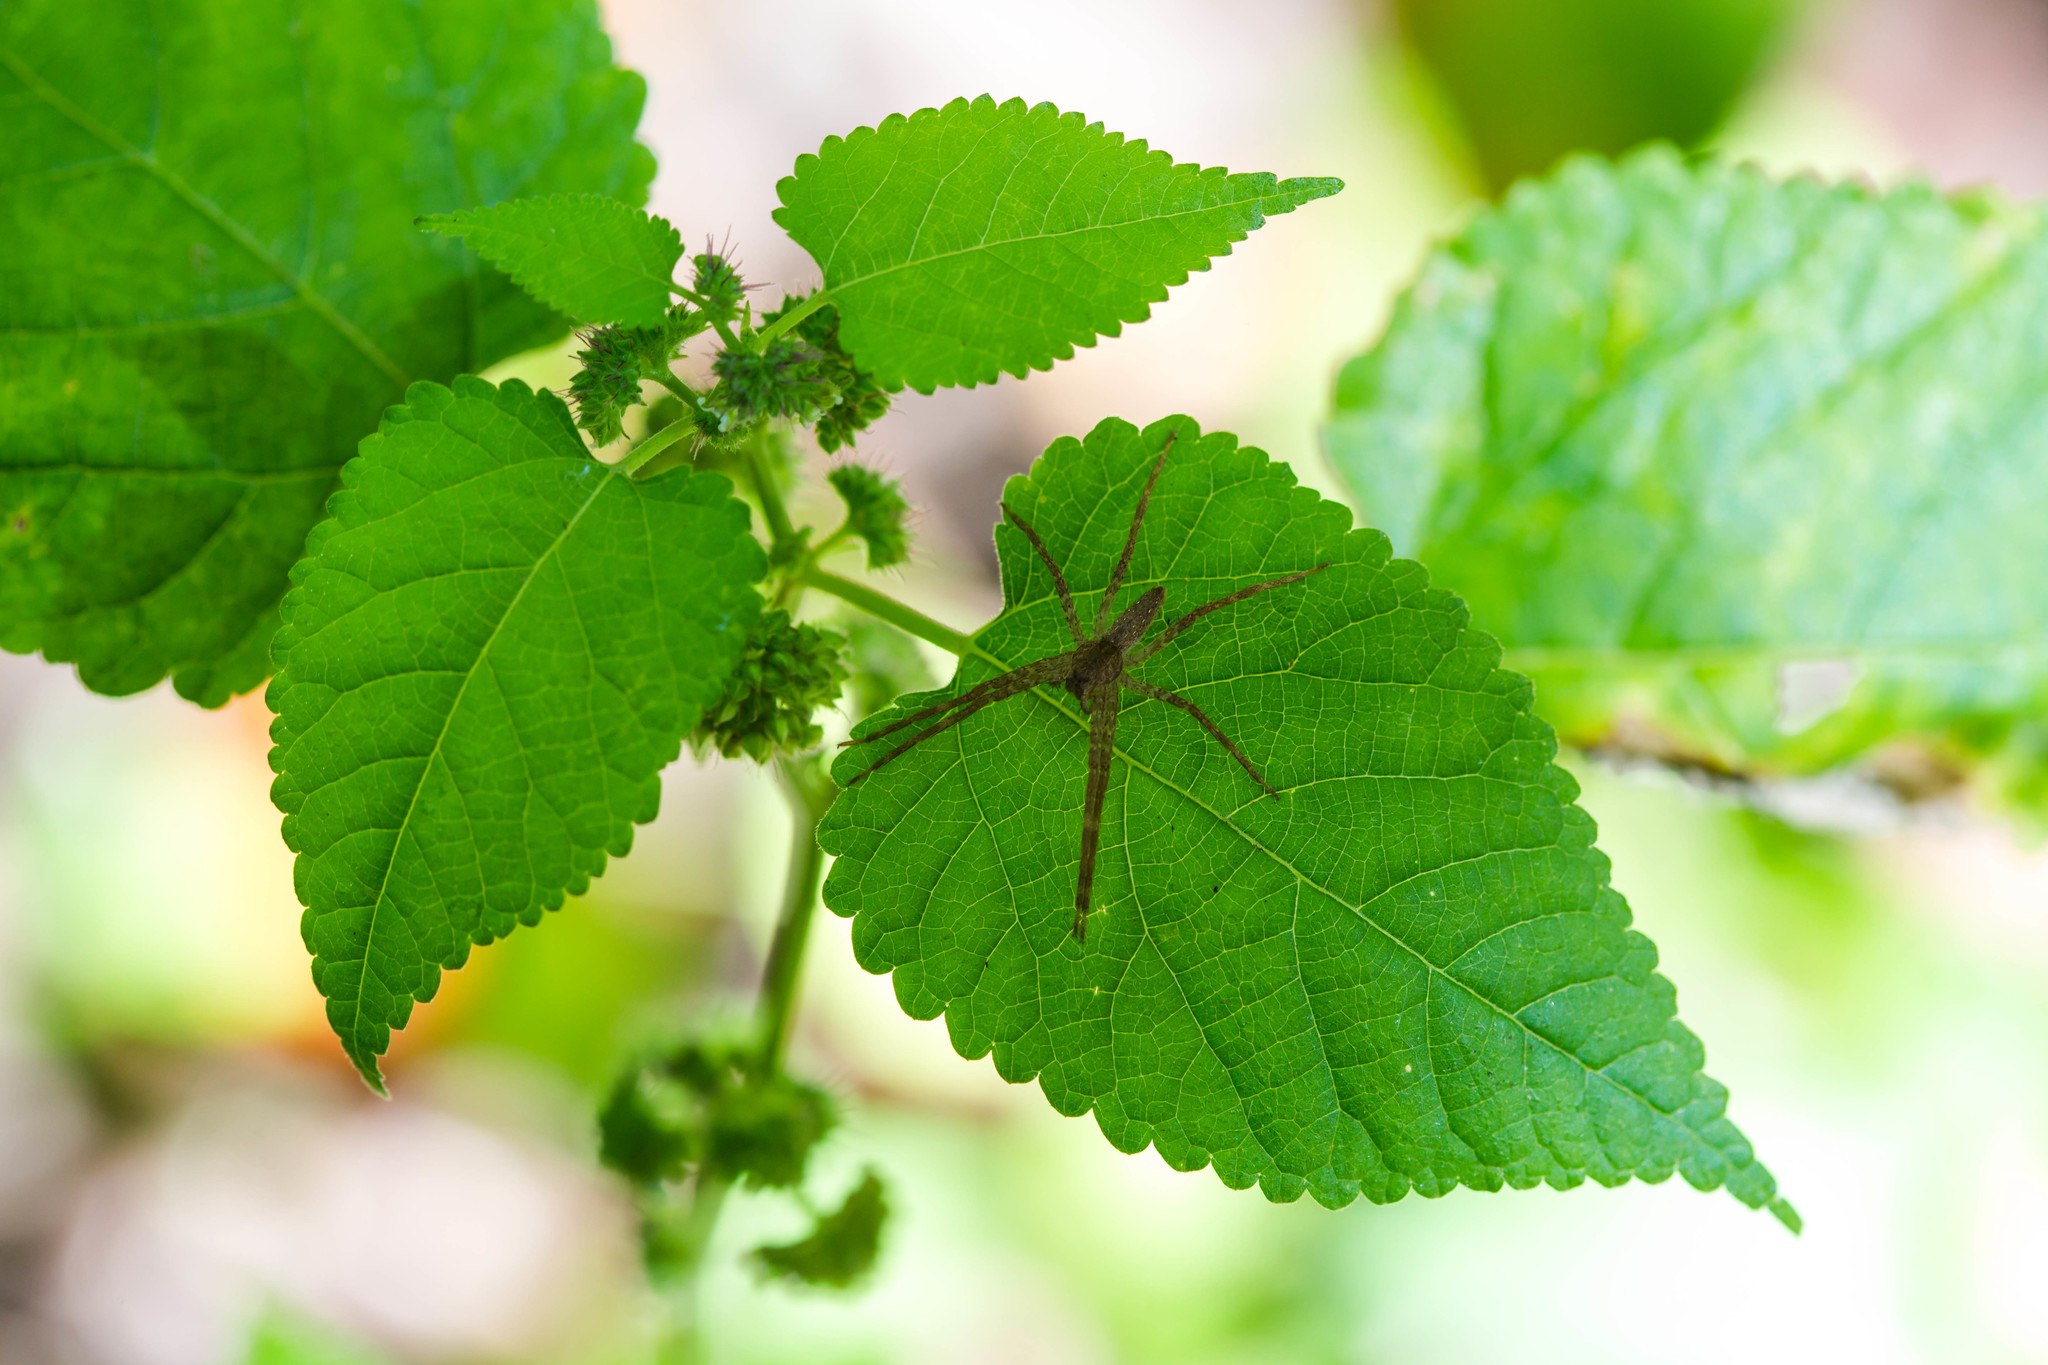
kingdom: Animalia
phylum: Arthropoda
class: Arachnida
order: Araneae
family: Pisauridae
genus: Pisaurina
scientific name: Pisaurina mira
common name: American nursery web spider
